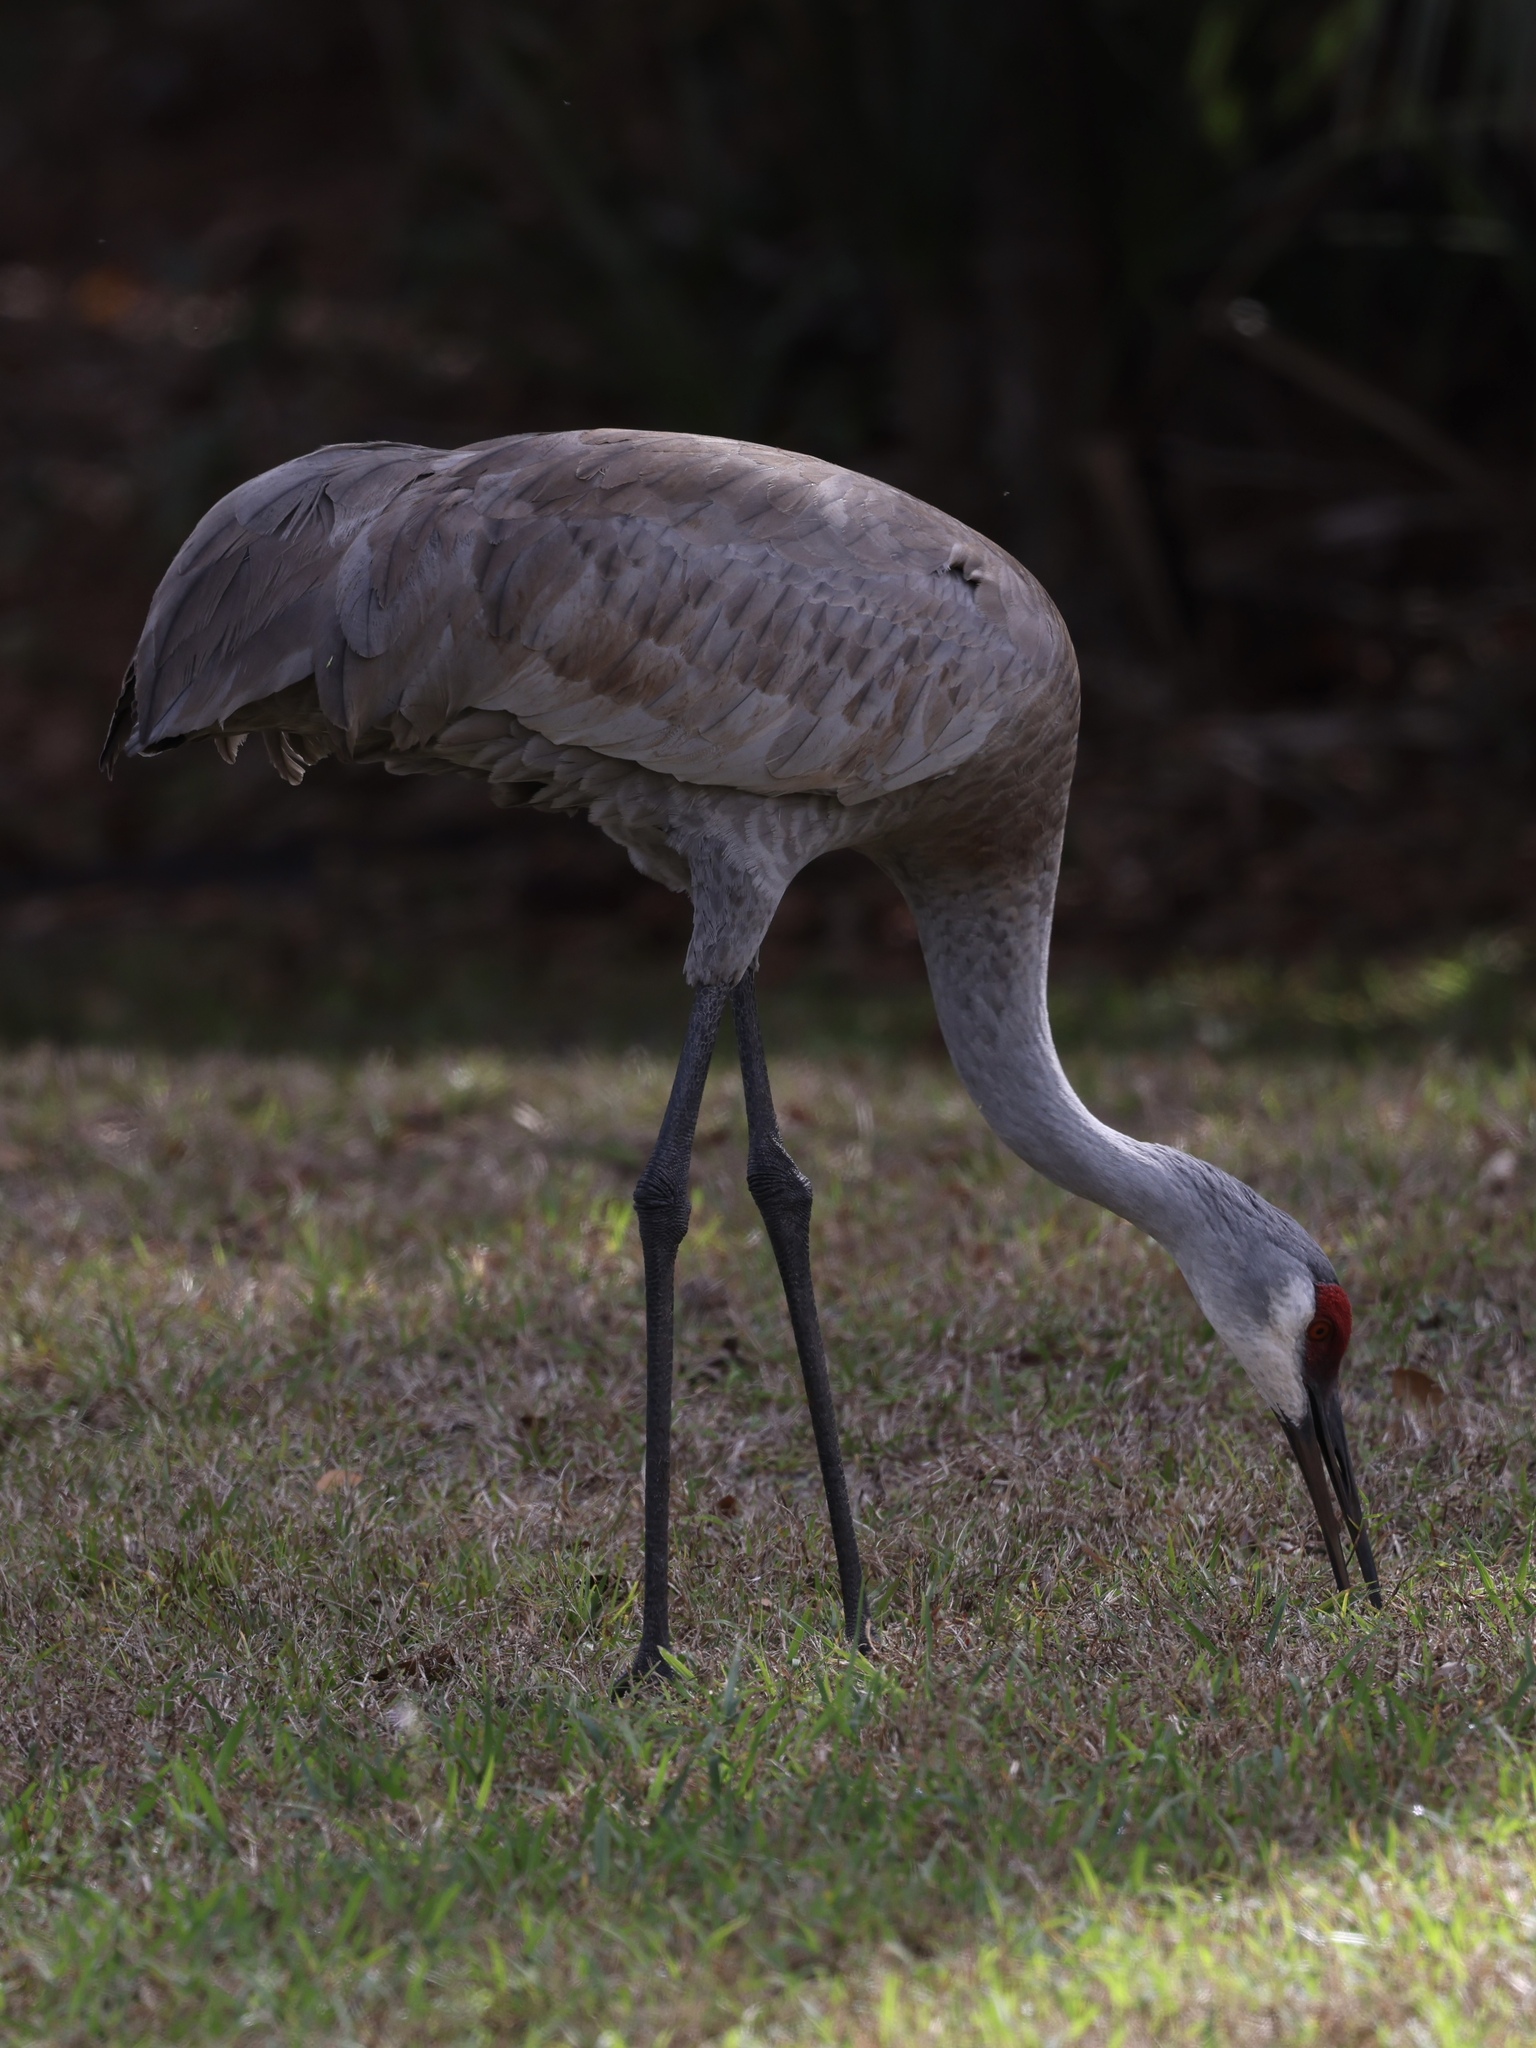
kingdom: Animalia
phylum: Chordata
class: Aves
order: Gruiformes
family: Gruidae
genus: Grus
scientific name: Grus canadensis
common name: Sandhill crane
